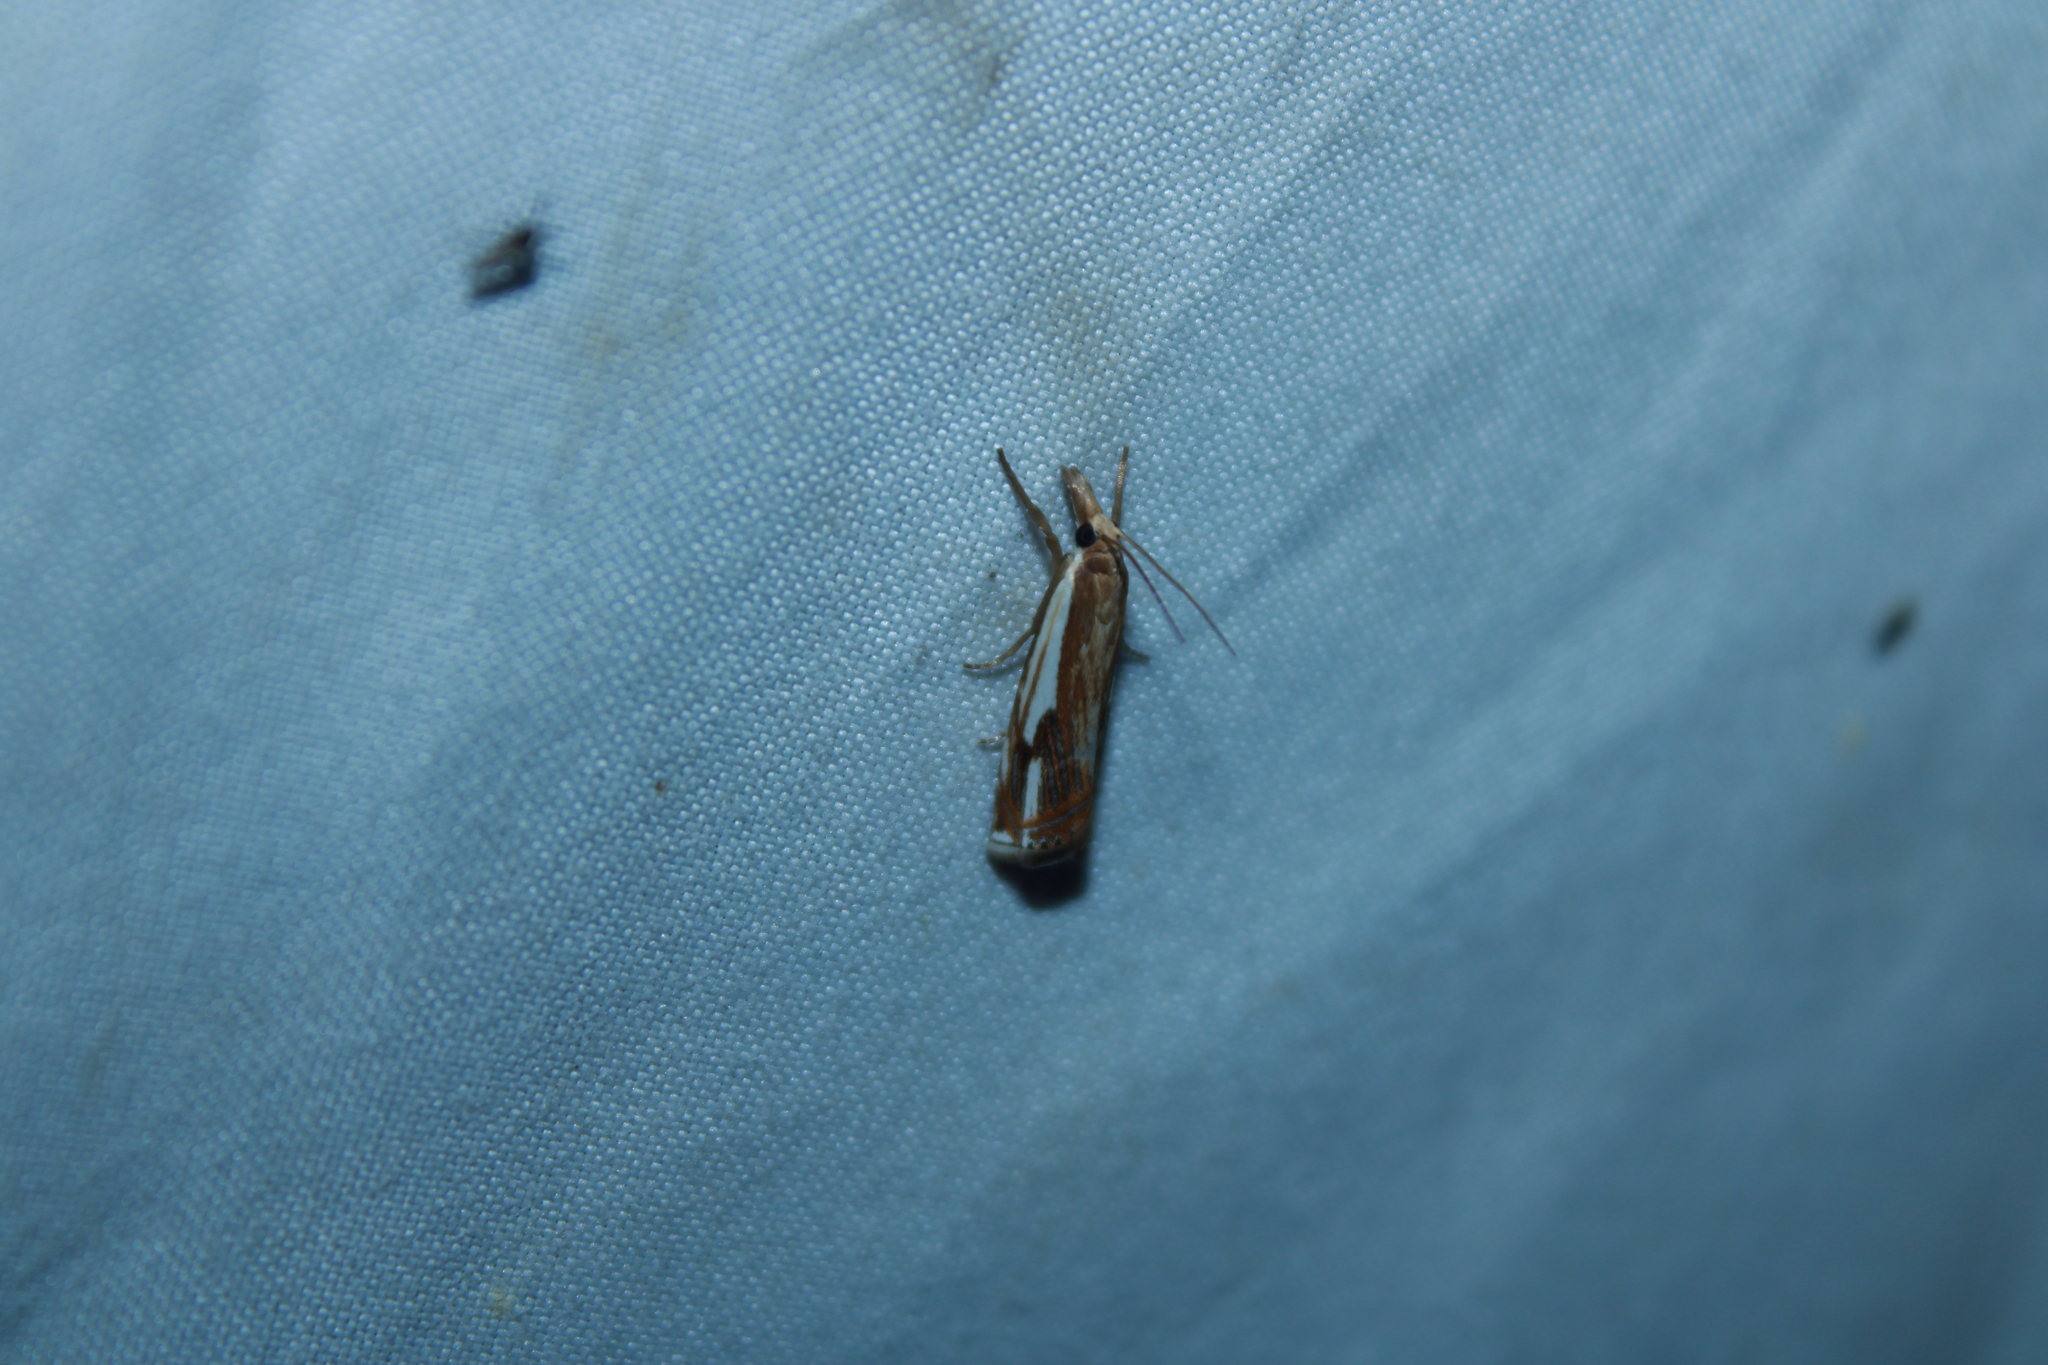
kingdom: Animalia
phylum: Arthropoda
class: Insecta
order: Lepidoptera
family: Crambidae
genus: Crambus
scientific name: Crambus agitatellus
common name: Double-banded grass-veneer
